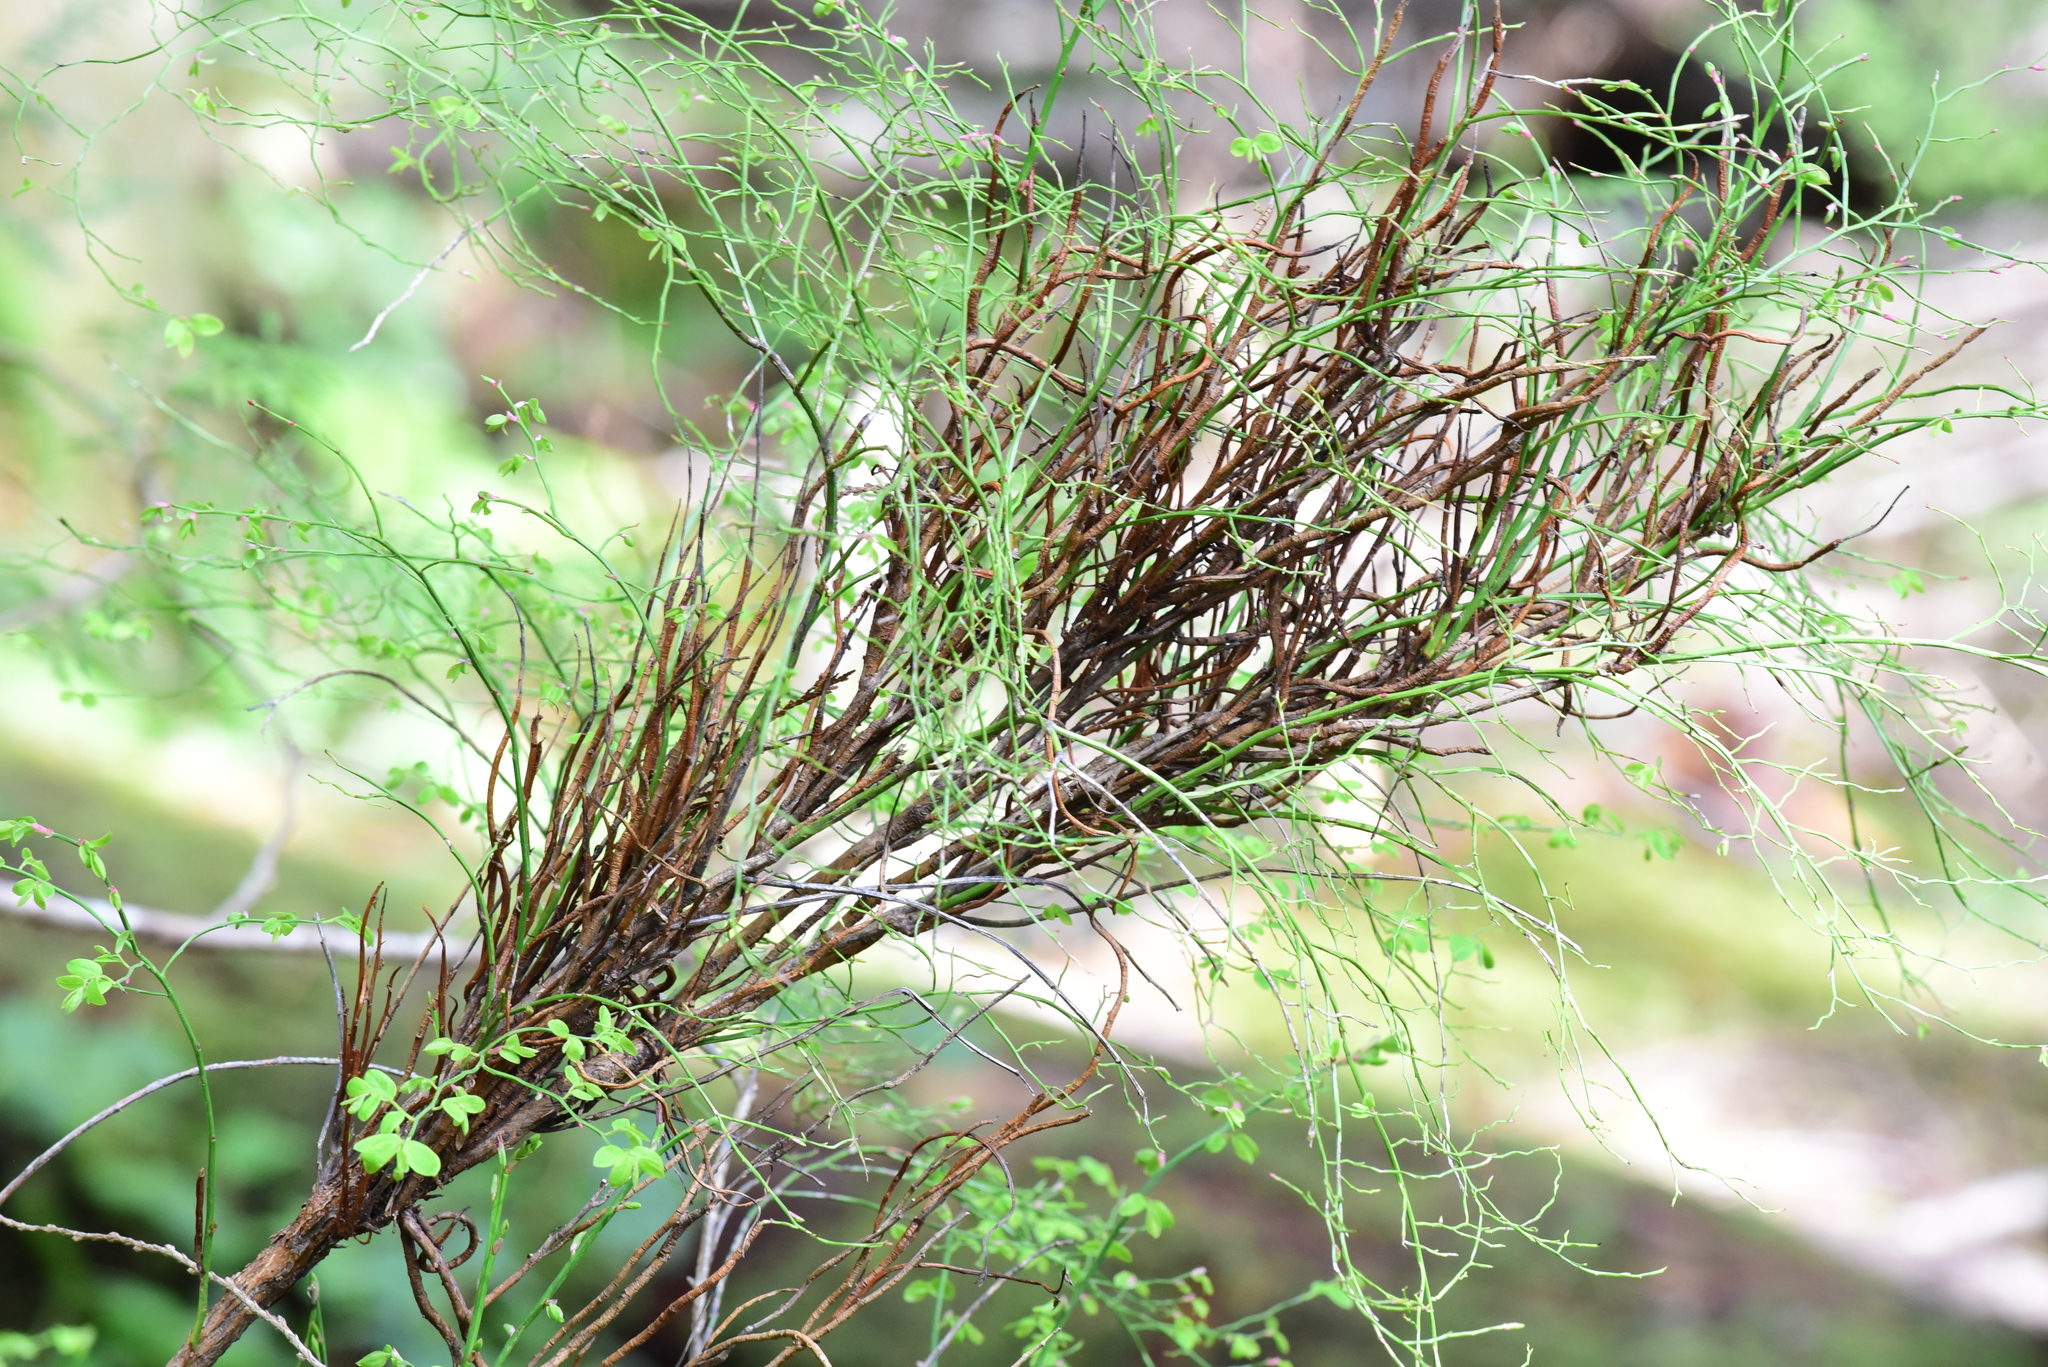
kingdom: Fungi
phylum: Basidiomycota
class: Pucciniomycetes
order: Pucciniales
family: Pucciniastraceae
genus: Calyptospora
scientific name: Calyptospora
